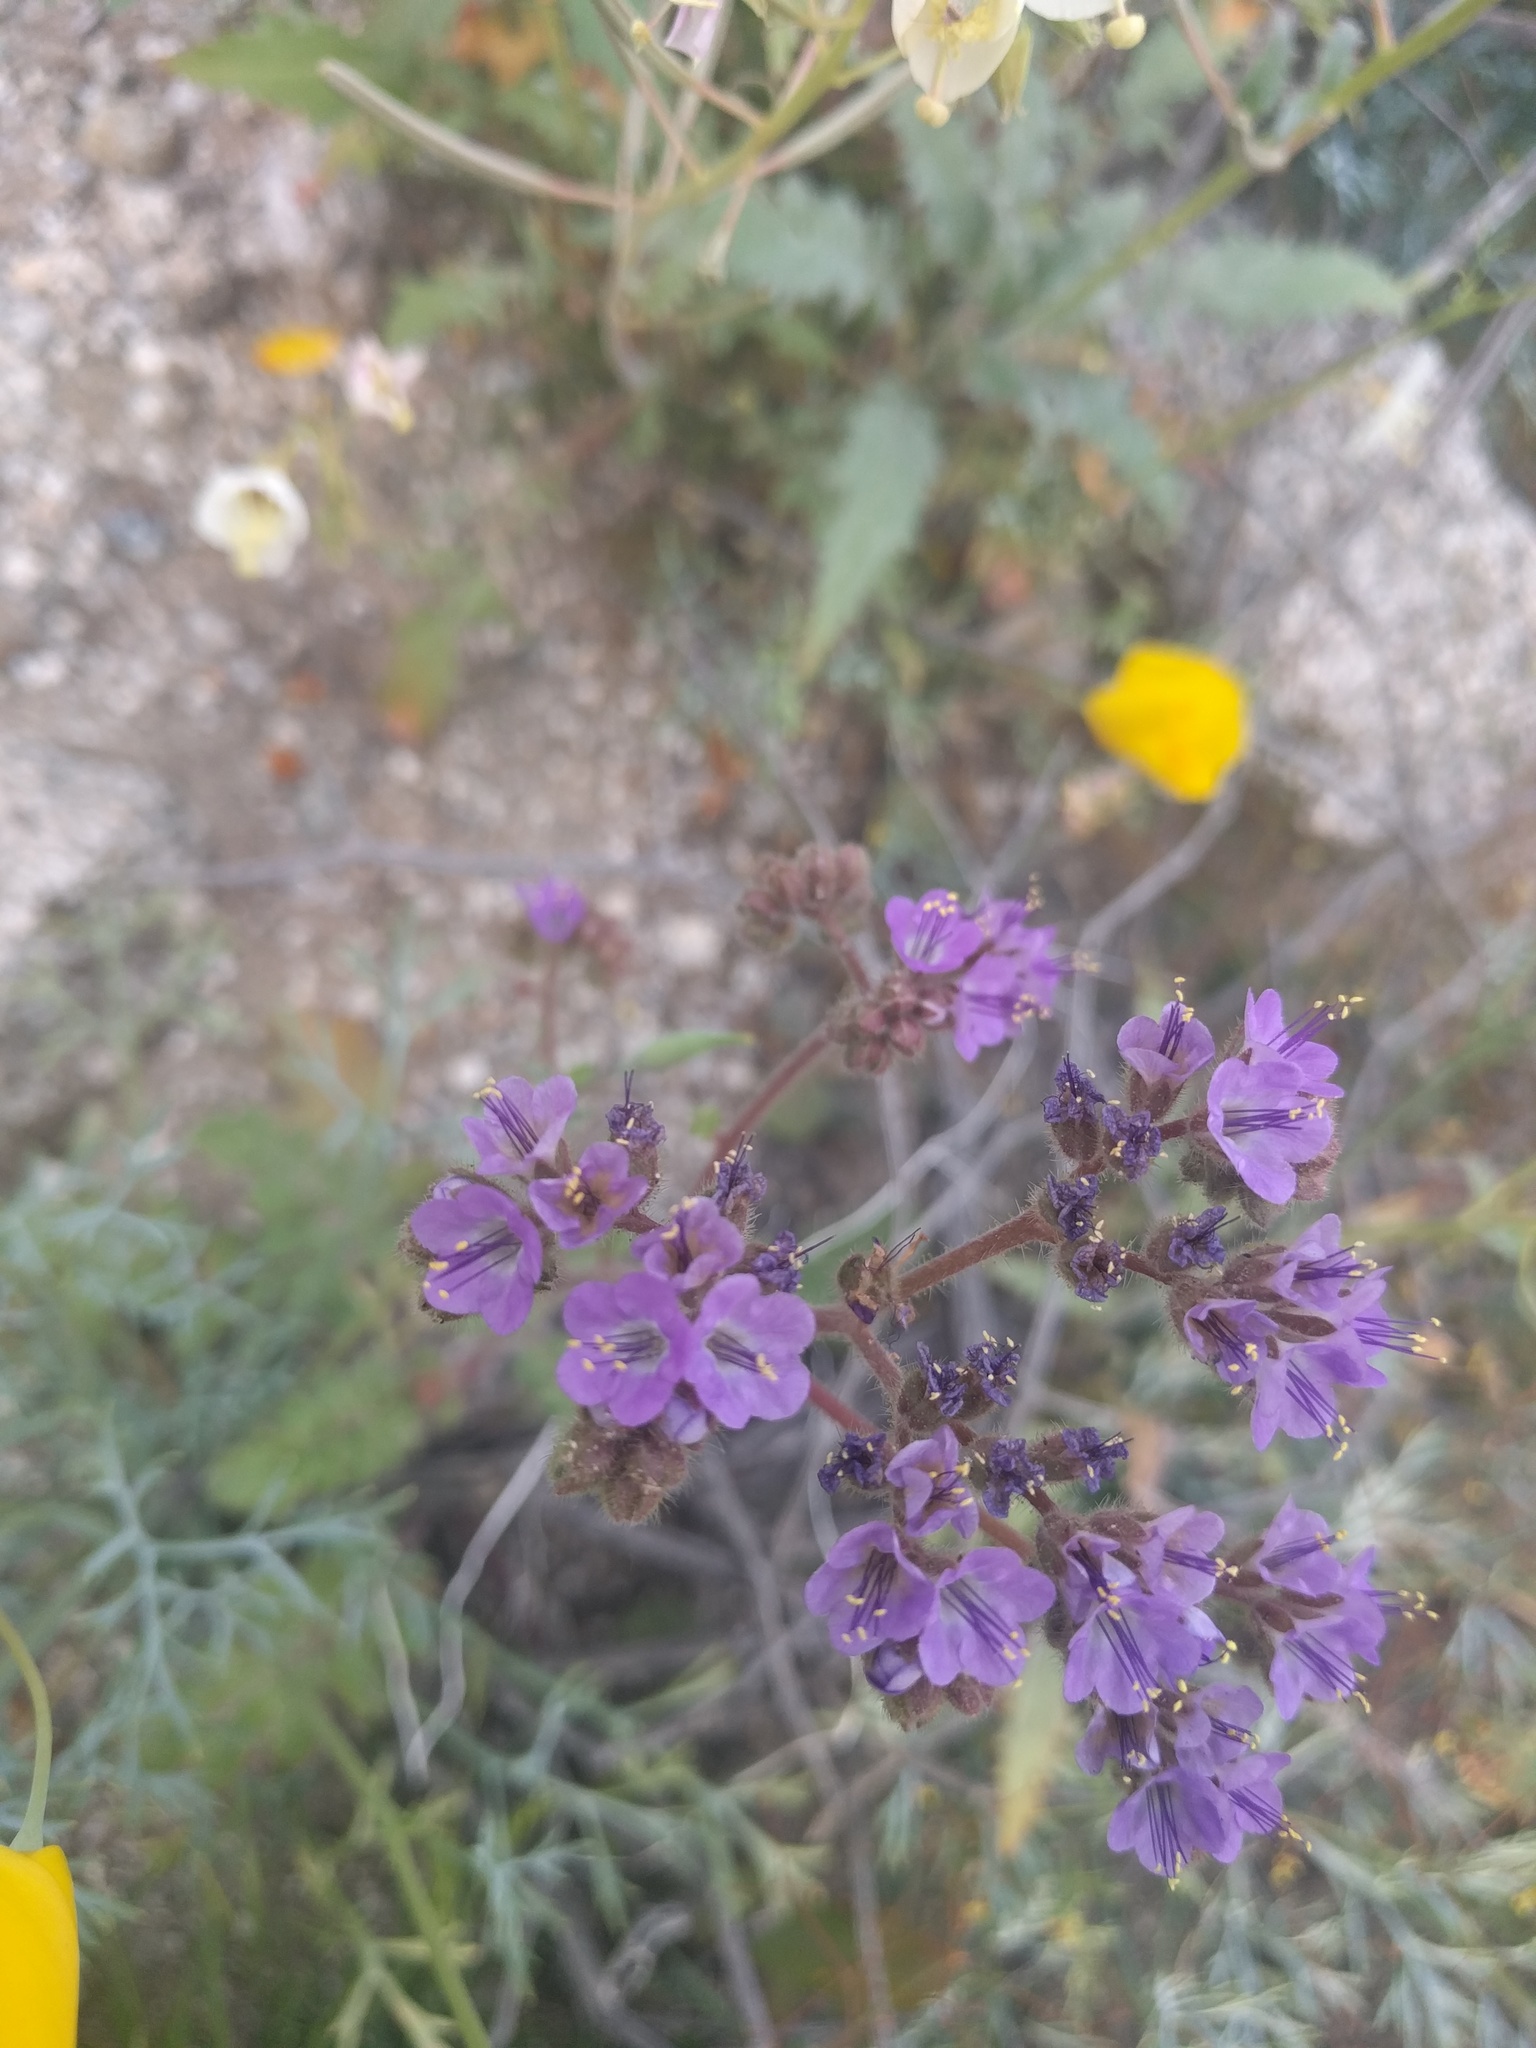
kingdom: Plantae
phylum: Tracheophyta
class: Magnoliopsida
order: Boraginales
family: Hydrophyllaceae
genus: Phacelia
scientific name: Phacelia crenulata
